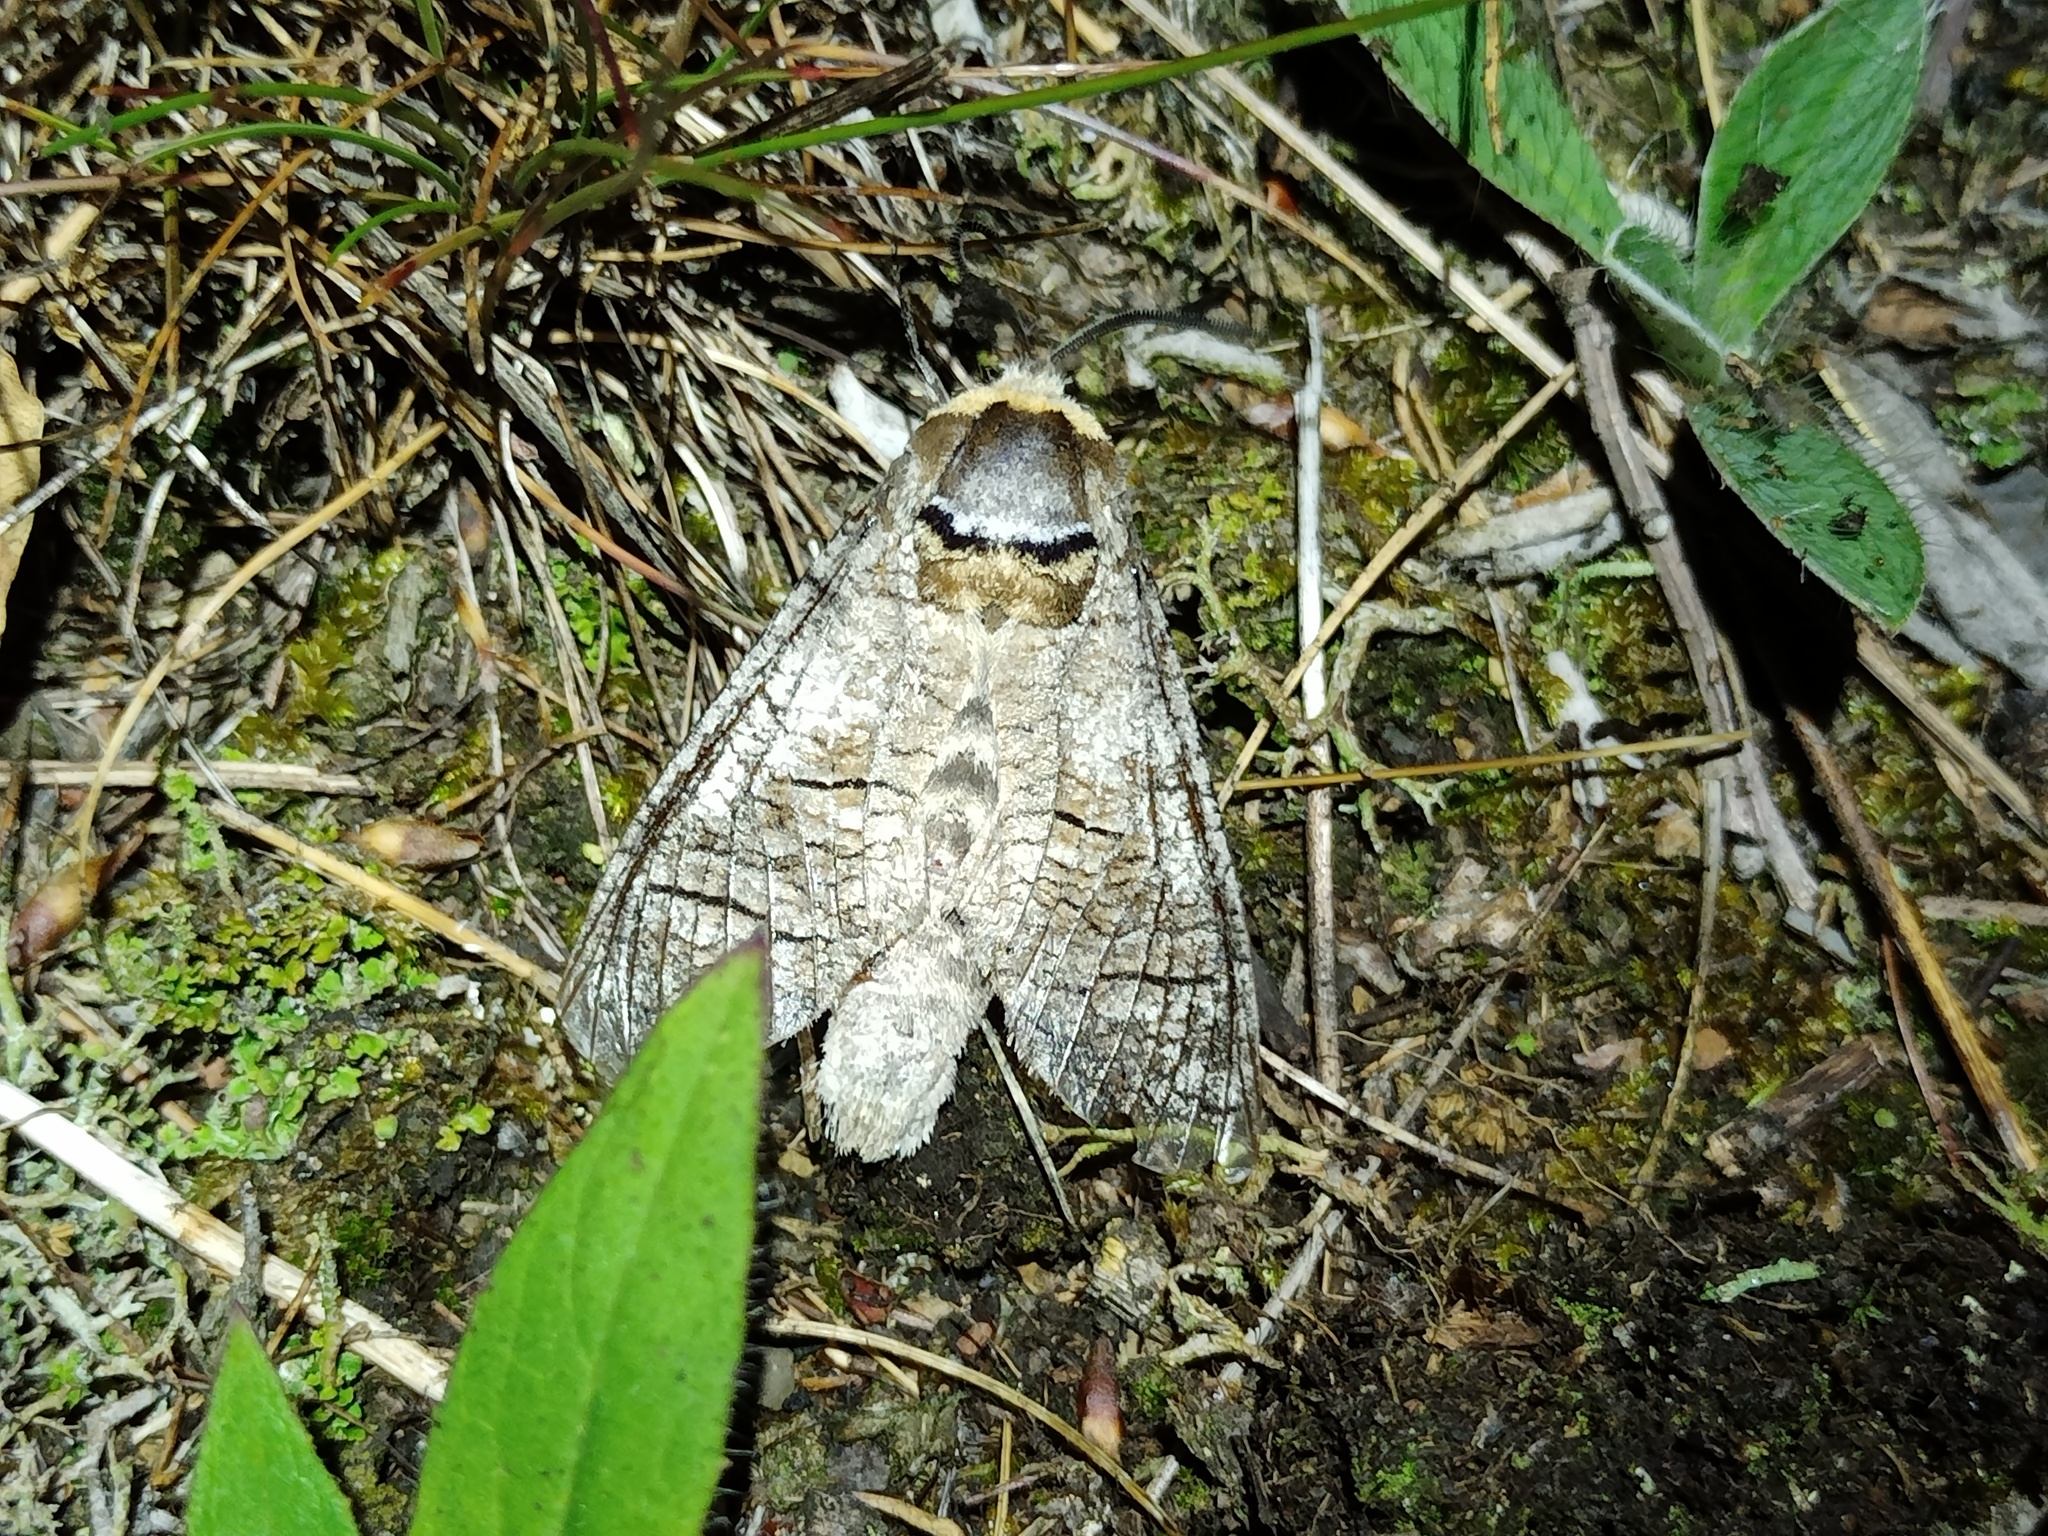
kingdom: Animalia
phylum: Arthropoda
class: Insecta
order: Lepidoptera
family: Cossidae
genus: Cossus
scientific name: Cossus cossus
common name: Goat moth
